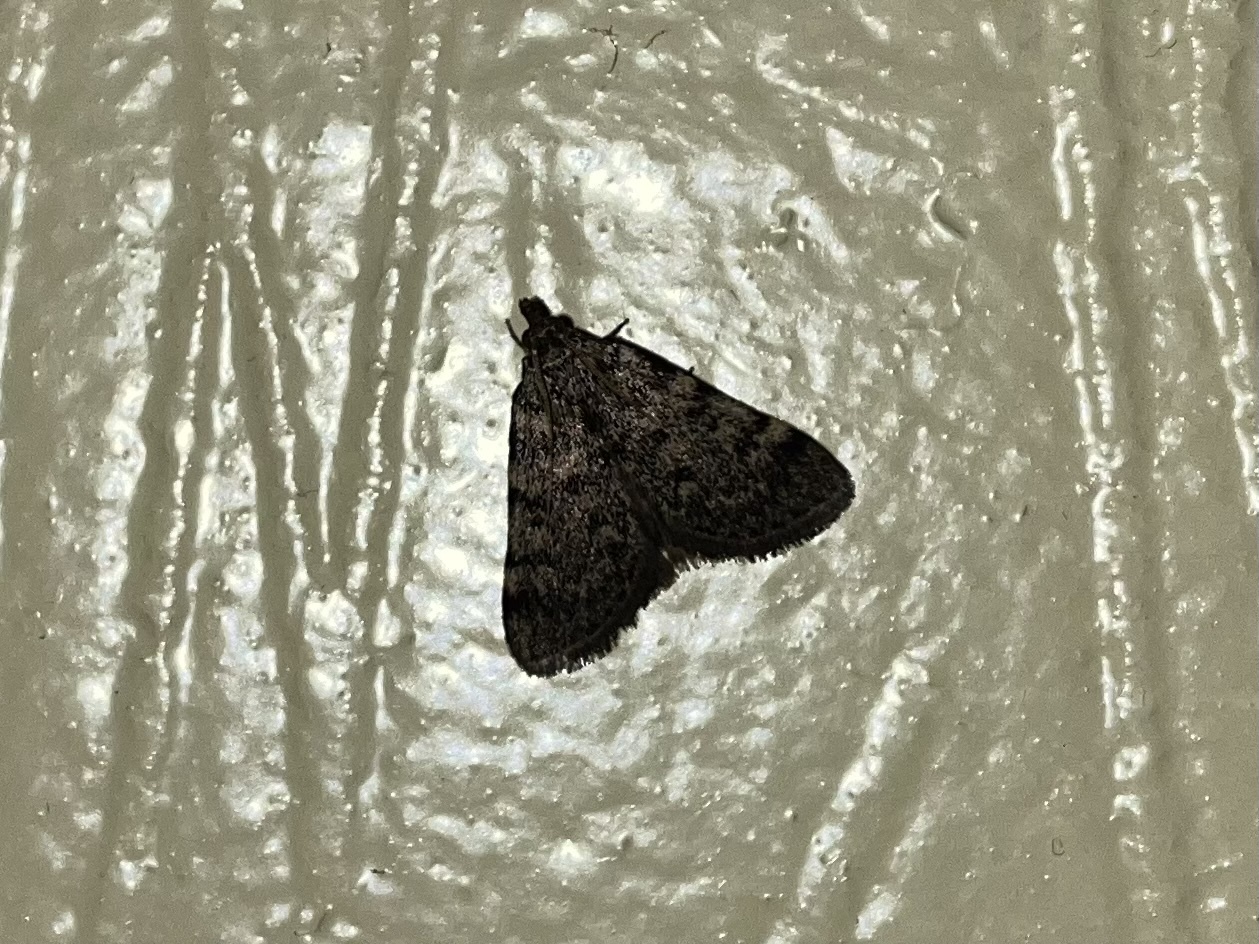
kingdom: Animalia
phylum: Arthropoda
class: Insecta
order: Lepidoptera
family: Pyralidae
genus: Aglossa
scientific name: Aglossa pinguinalis
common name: Large tabby
